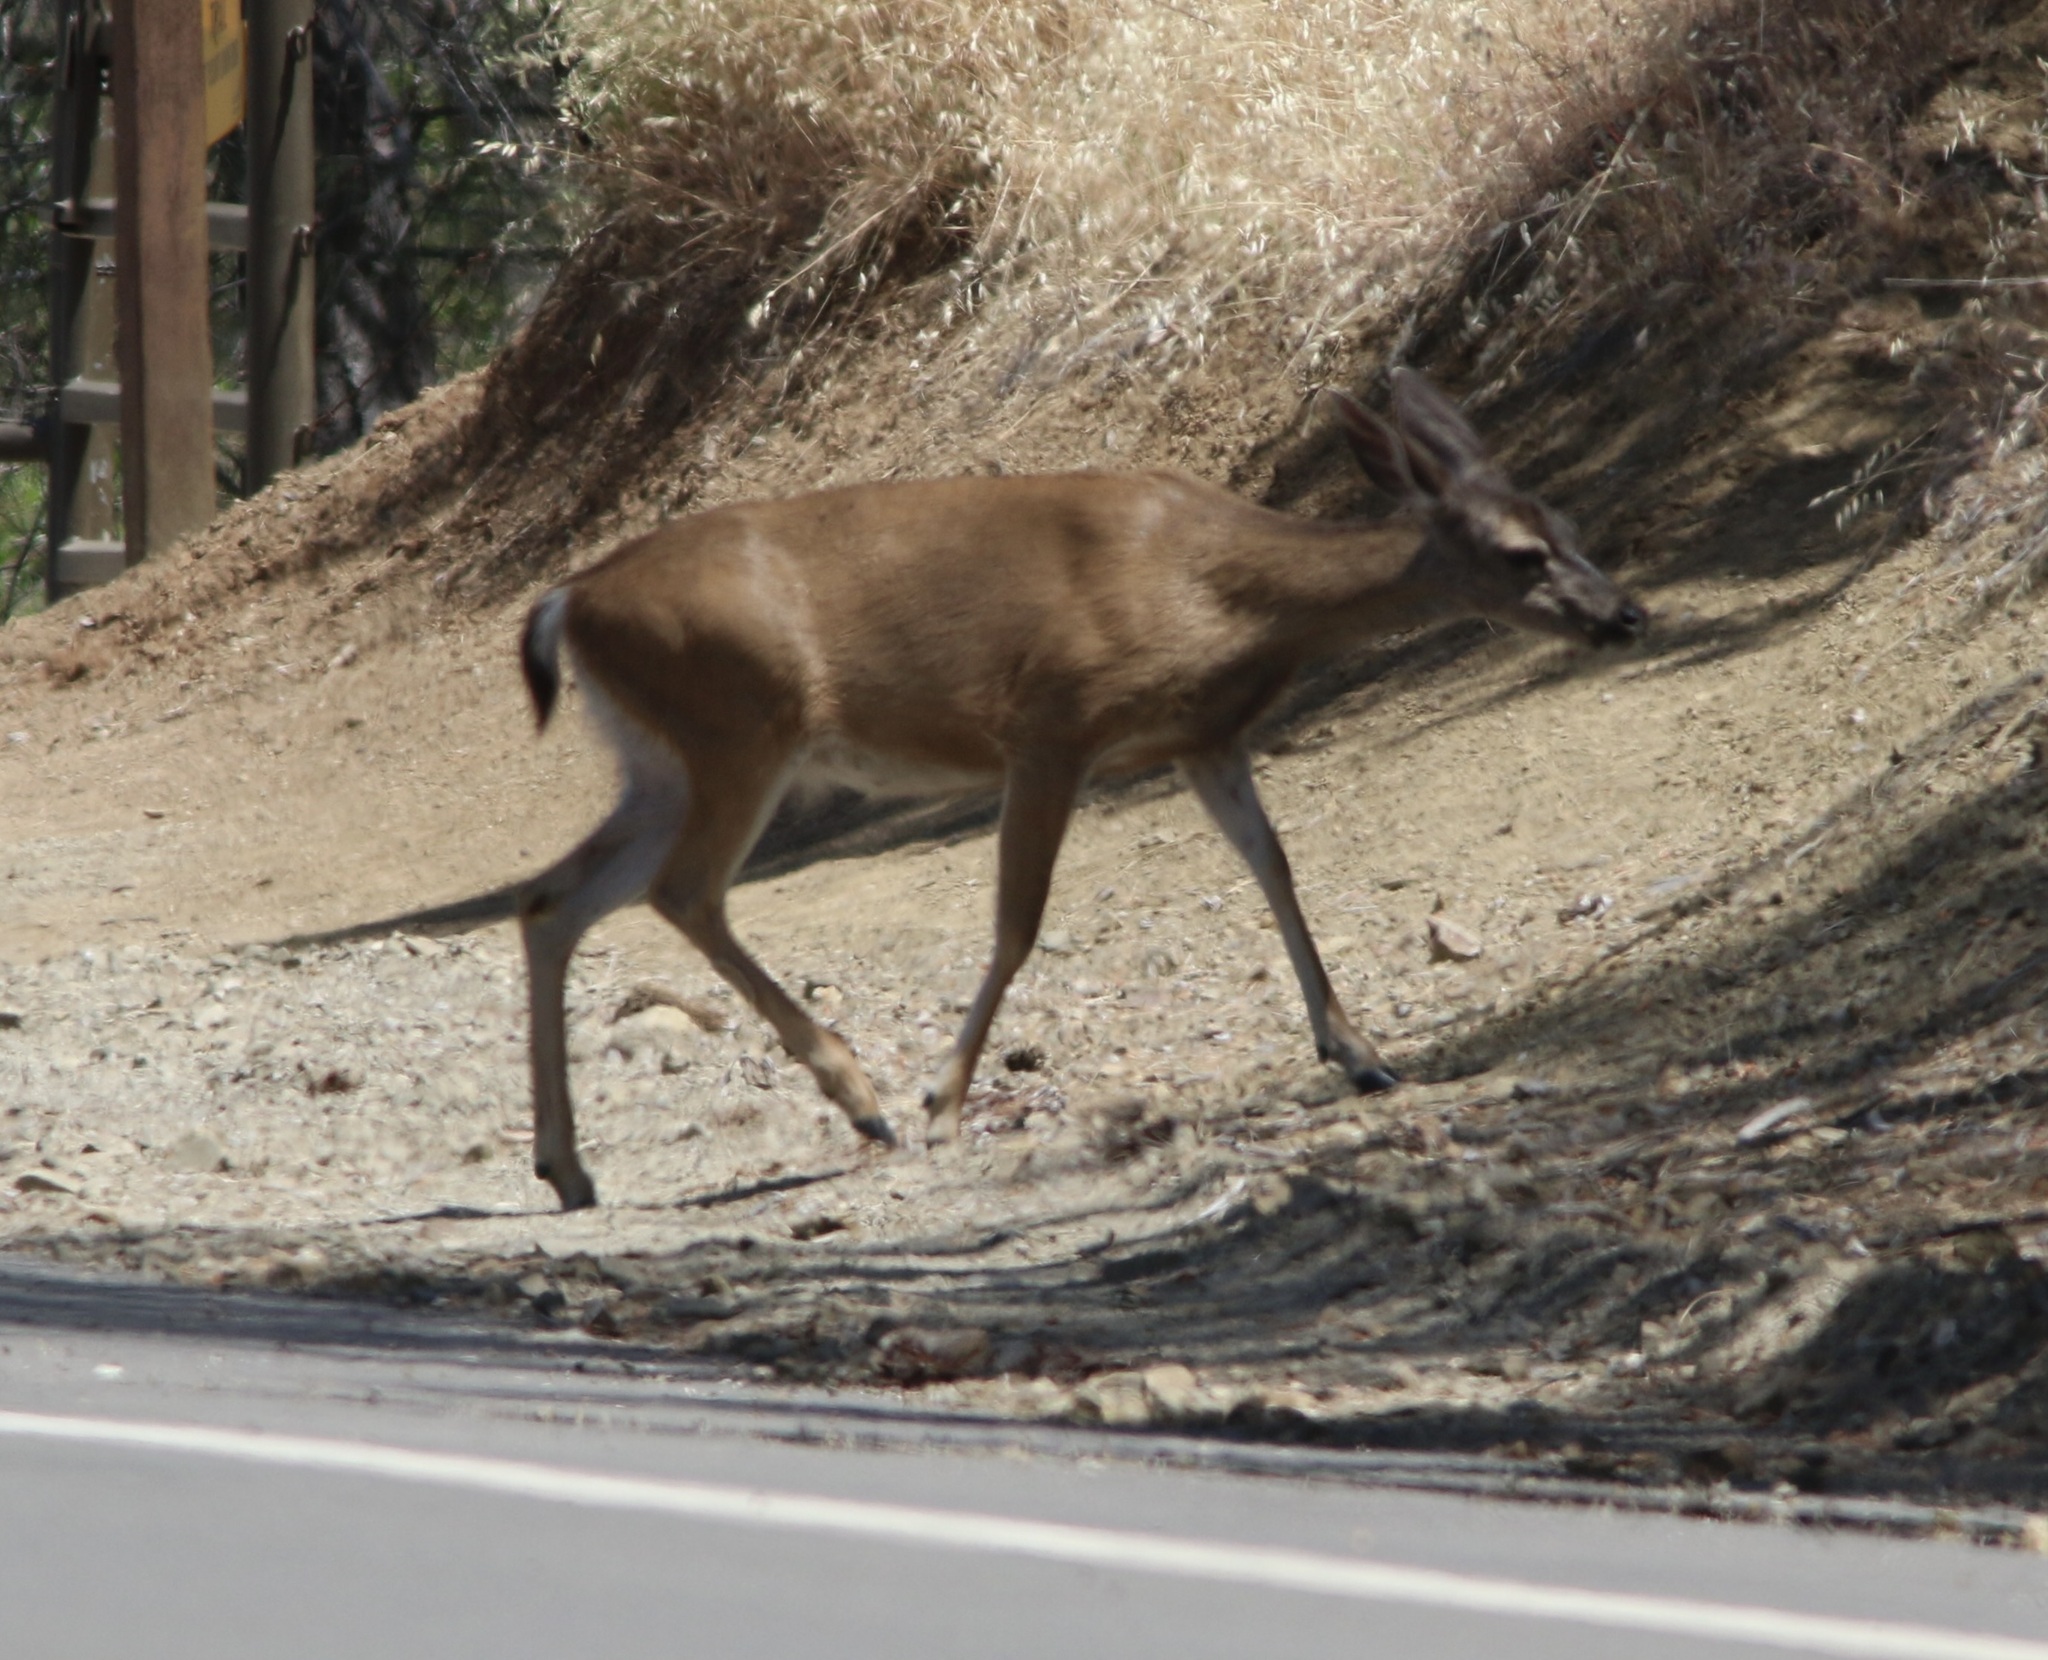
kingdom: Animalia
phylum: Chordata
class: Mammalia
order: Artiodactyla
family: Cervidae
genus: Odocoileus
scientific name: Odocoileus hemionus
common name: Mule deer
